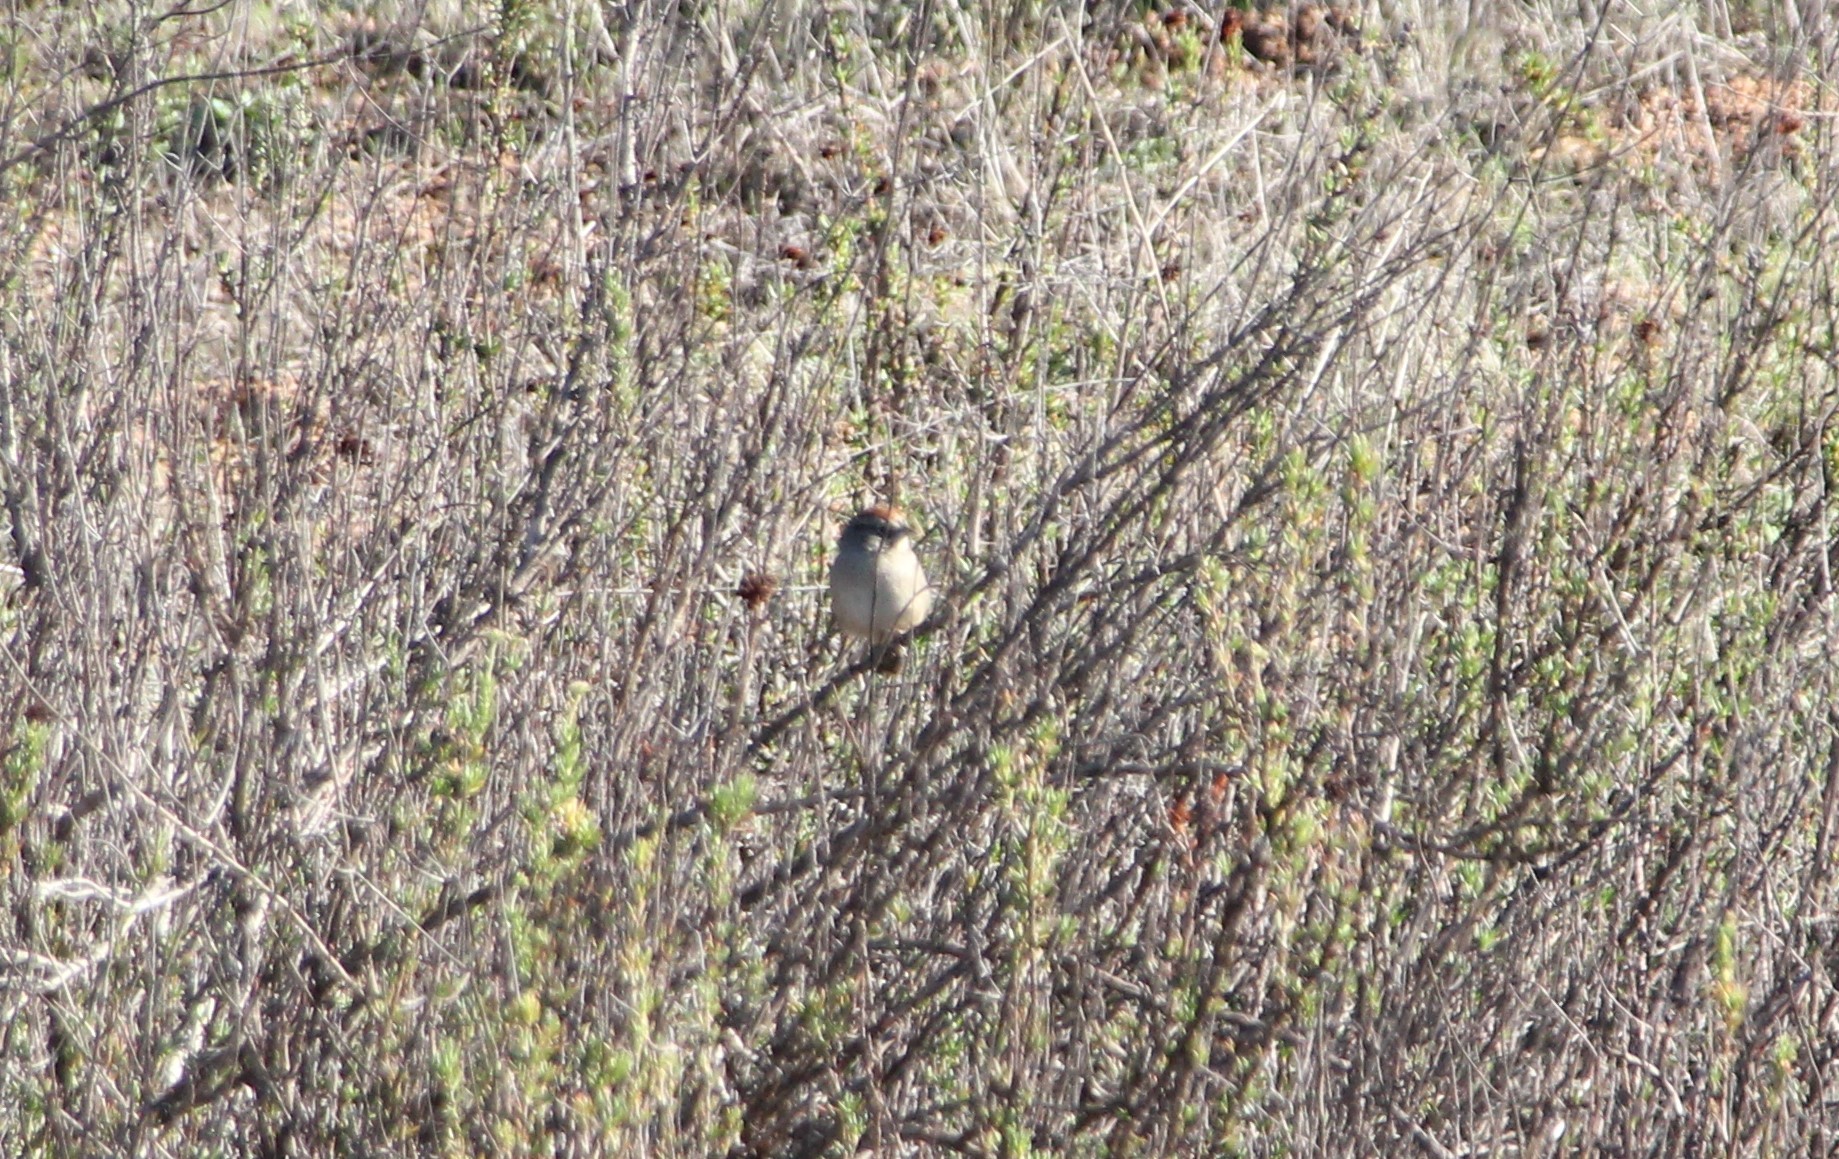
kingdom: Animalia
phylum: Chordata
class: Aves
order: Passeriformes
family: Passerellidae
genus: Aimophila
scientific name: Aimophila ruficeps
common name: Rufous-crowned sparrow
